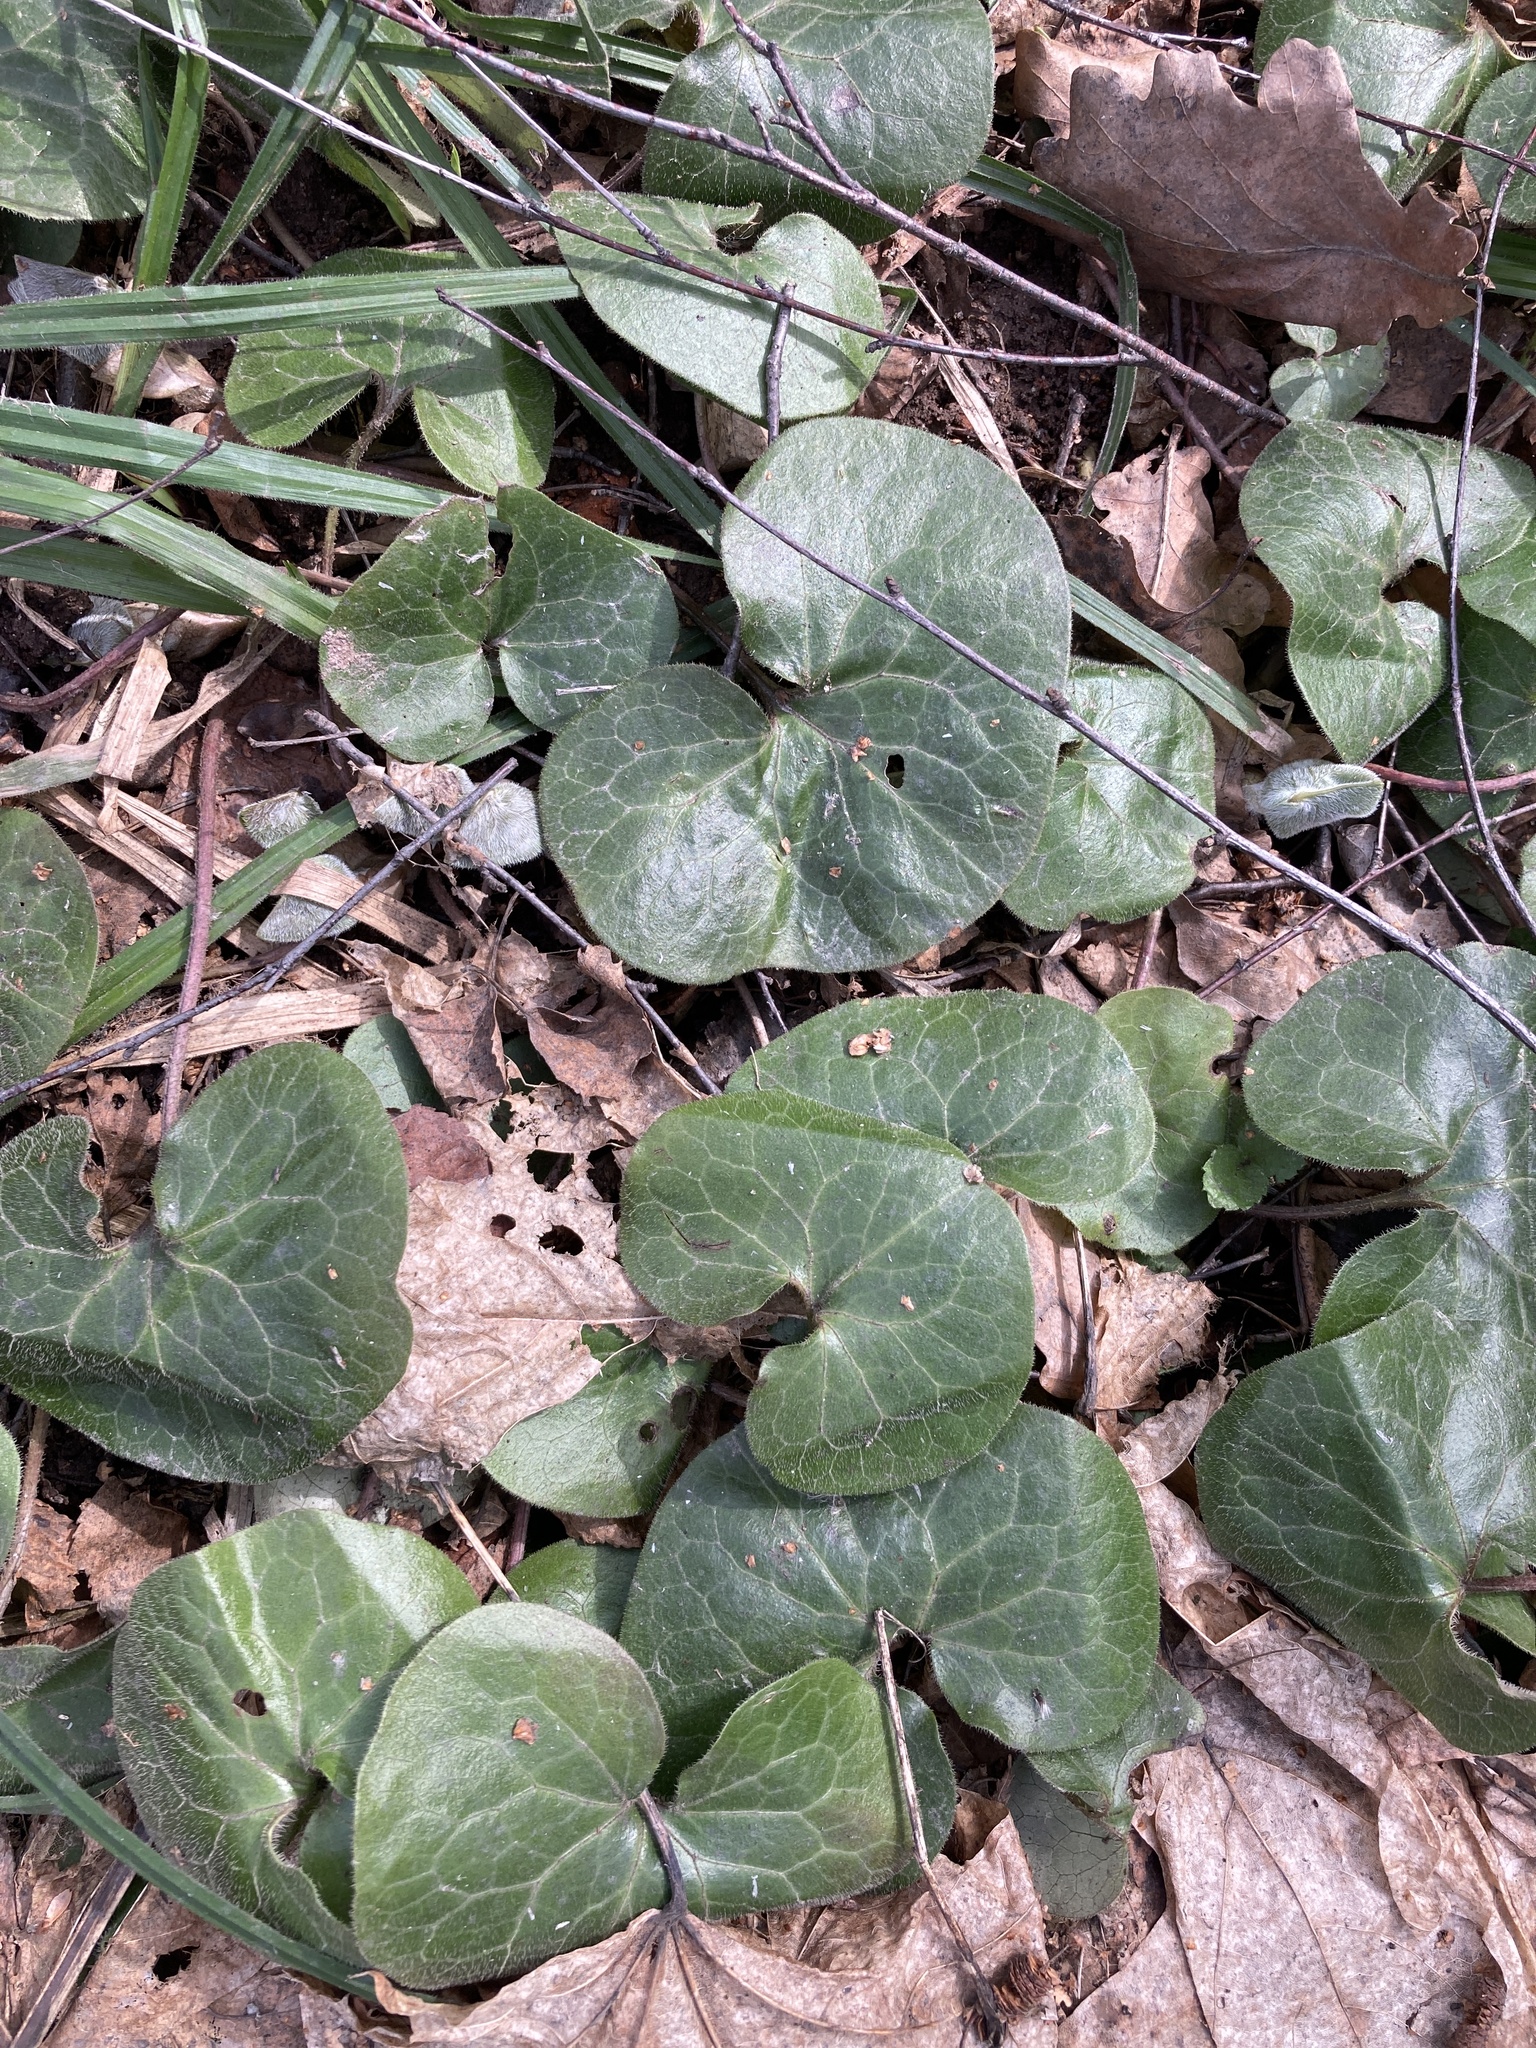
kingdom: Plantae
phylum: Tracheophyta
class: Magnoliopsida
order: Piperales
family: Aristolochiaceae
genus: Asarum
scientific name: Asarum europaeum
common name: Asarabacca
